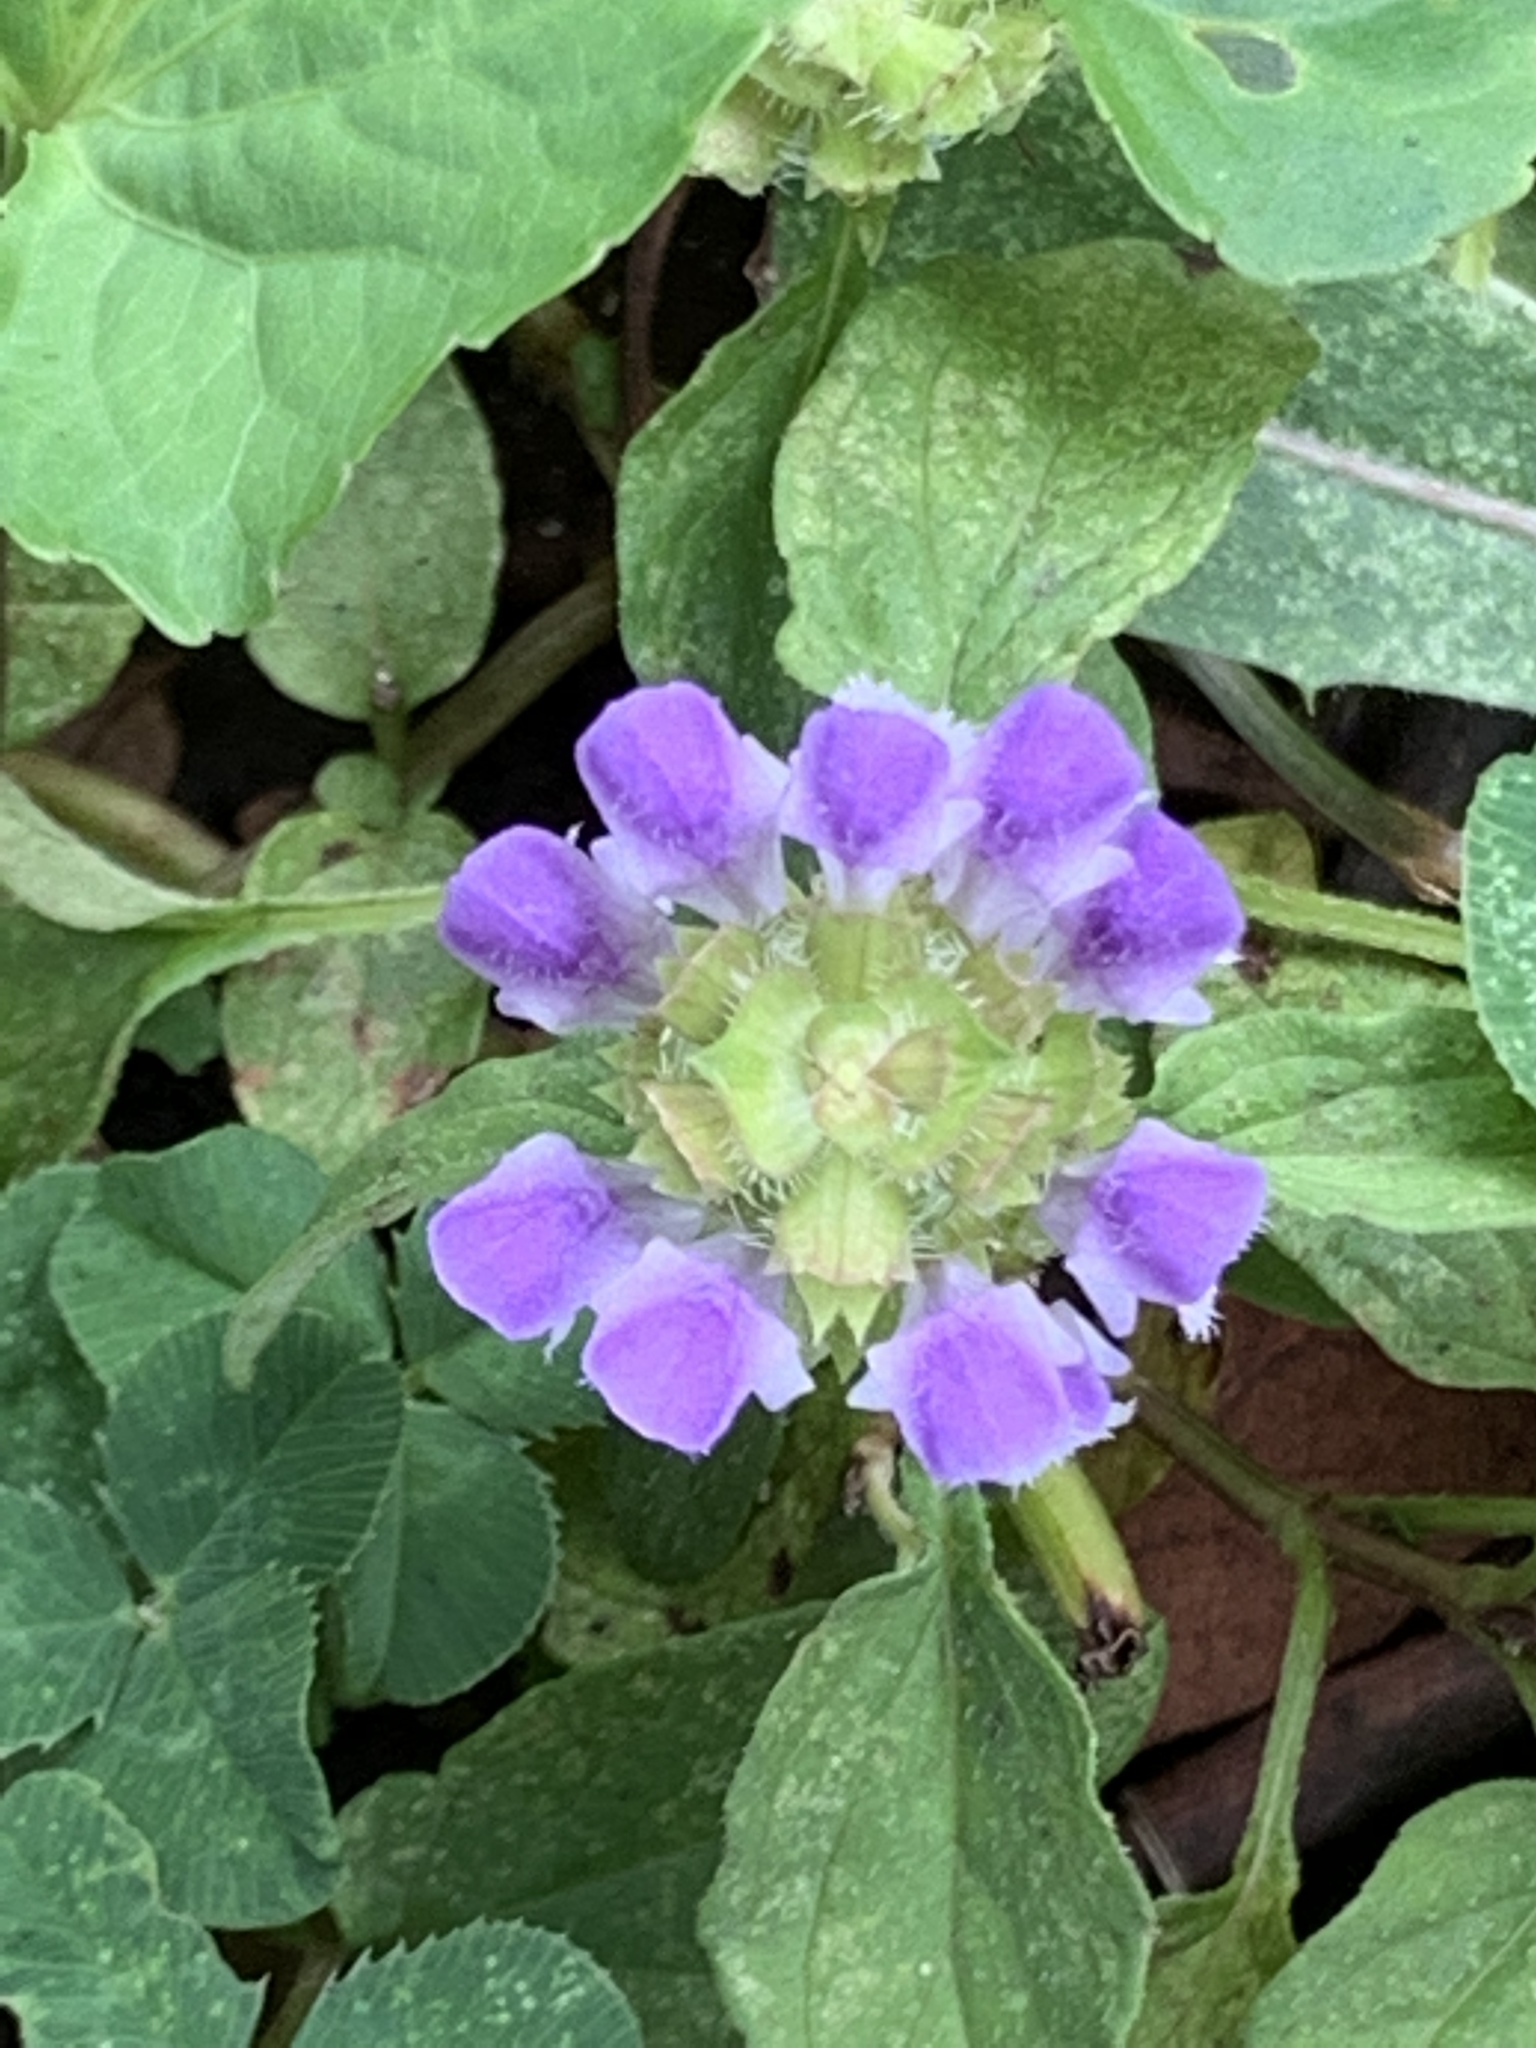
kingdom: Plantae
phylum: Tracheophyta
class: Magnoliopsida
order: Lamiales
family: Lamiaceae
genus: Prunella
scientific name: Prunella vulgaris
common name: Heal-all
